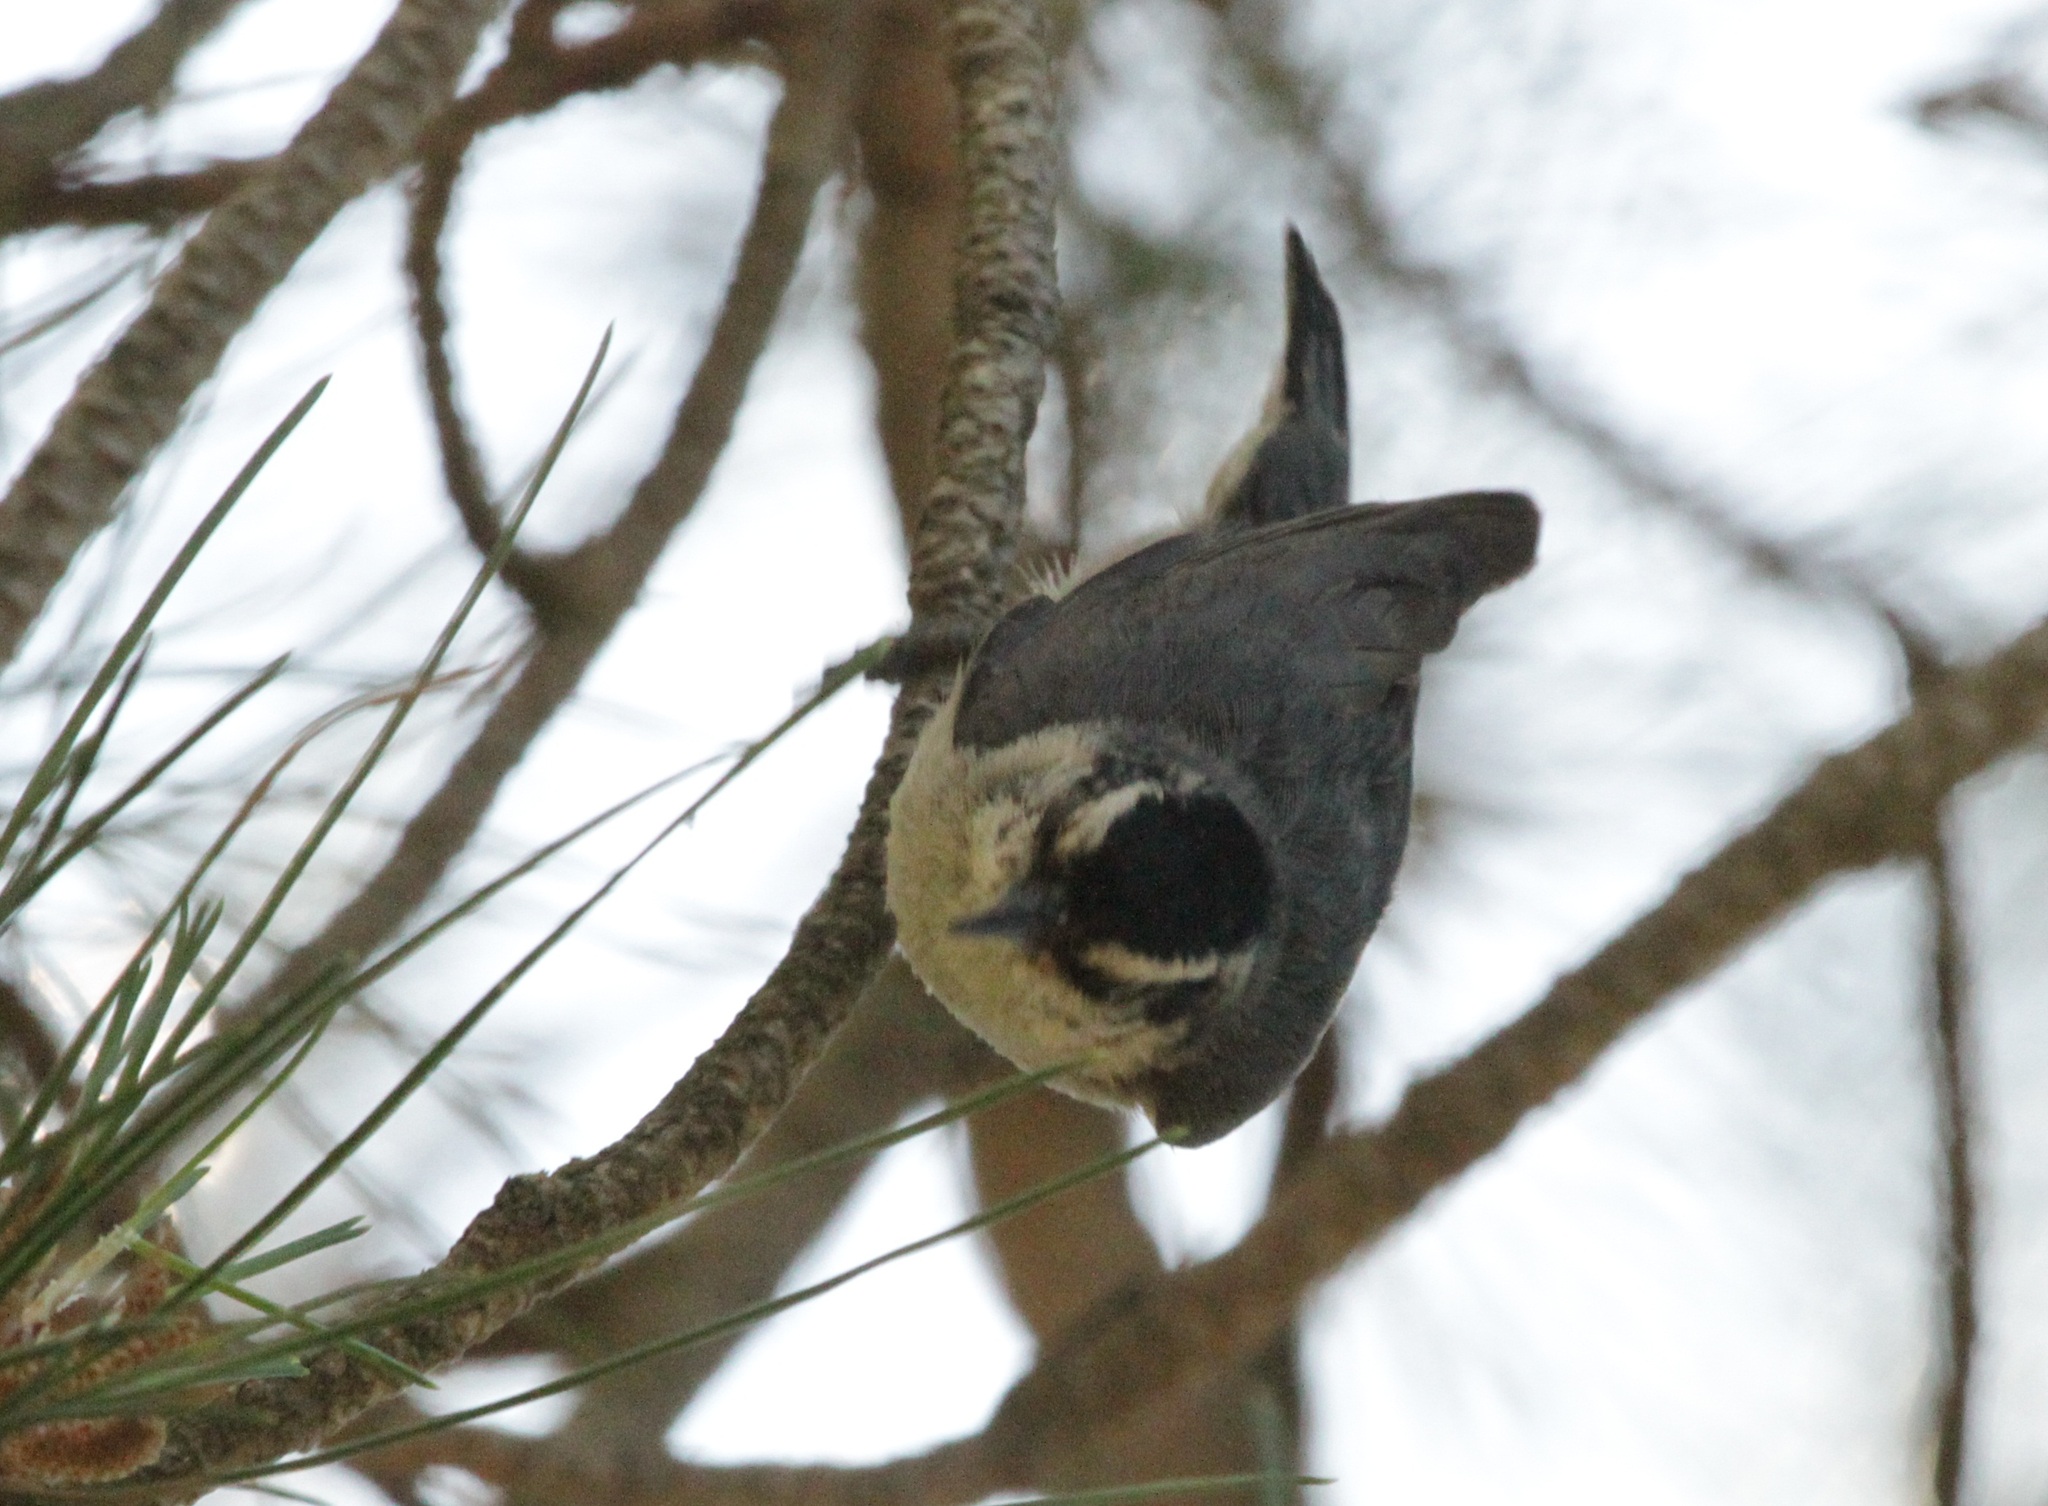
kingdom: Animalia
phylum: Chordata
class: Aves
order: Passeriformes
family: Sittidae
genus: Sitta
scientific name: Sitta whiteheadi
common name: Corsican nuthatch
